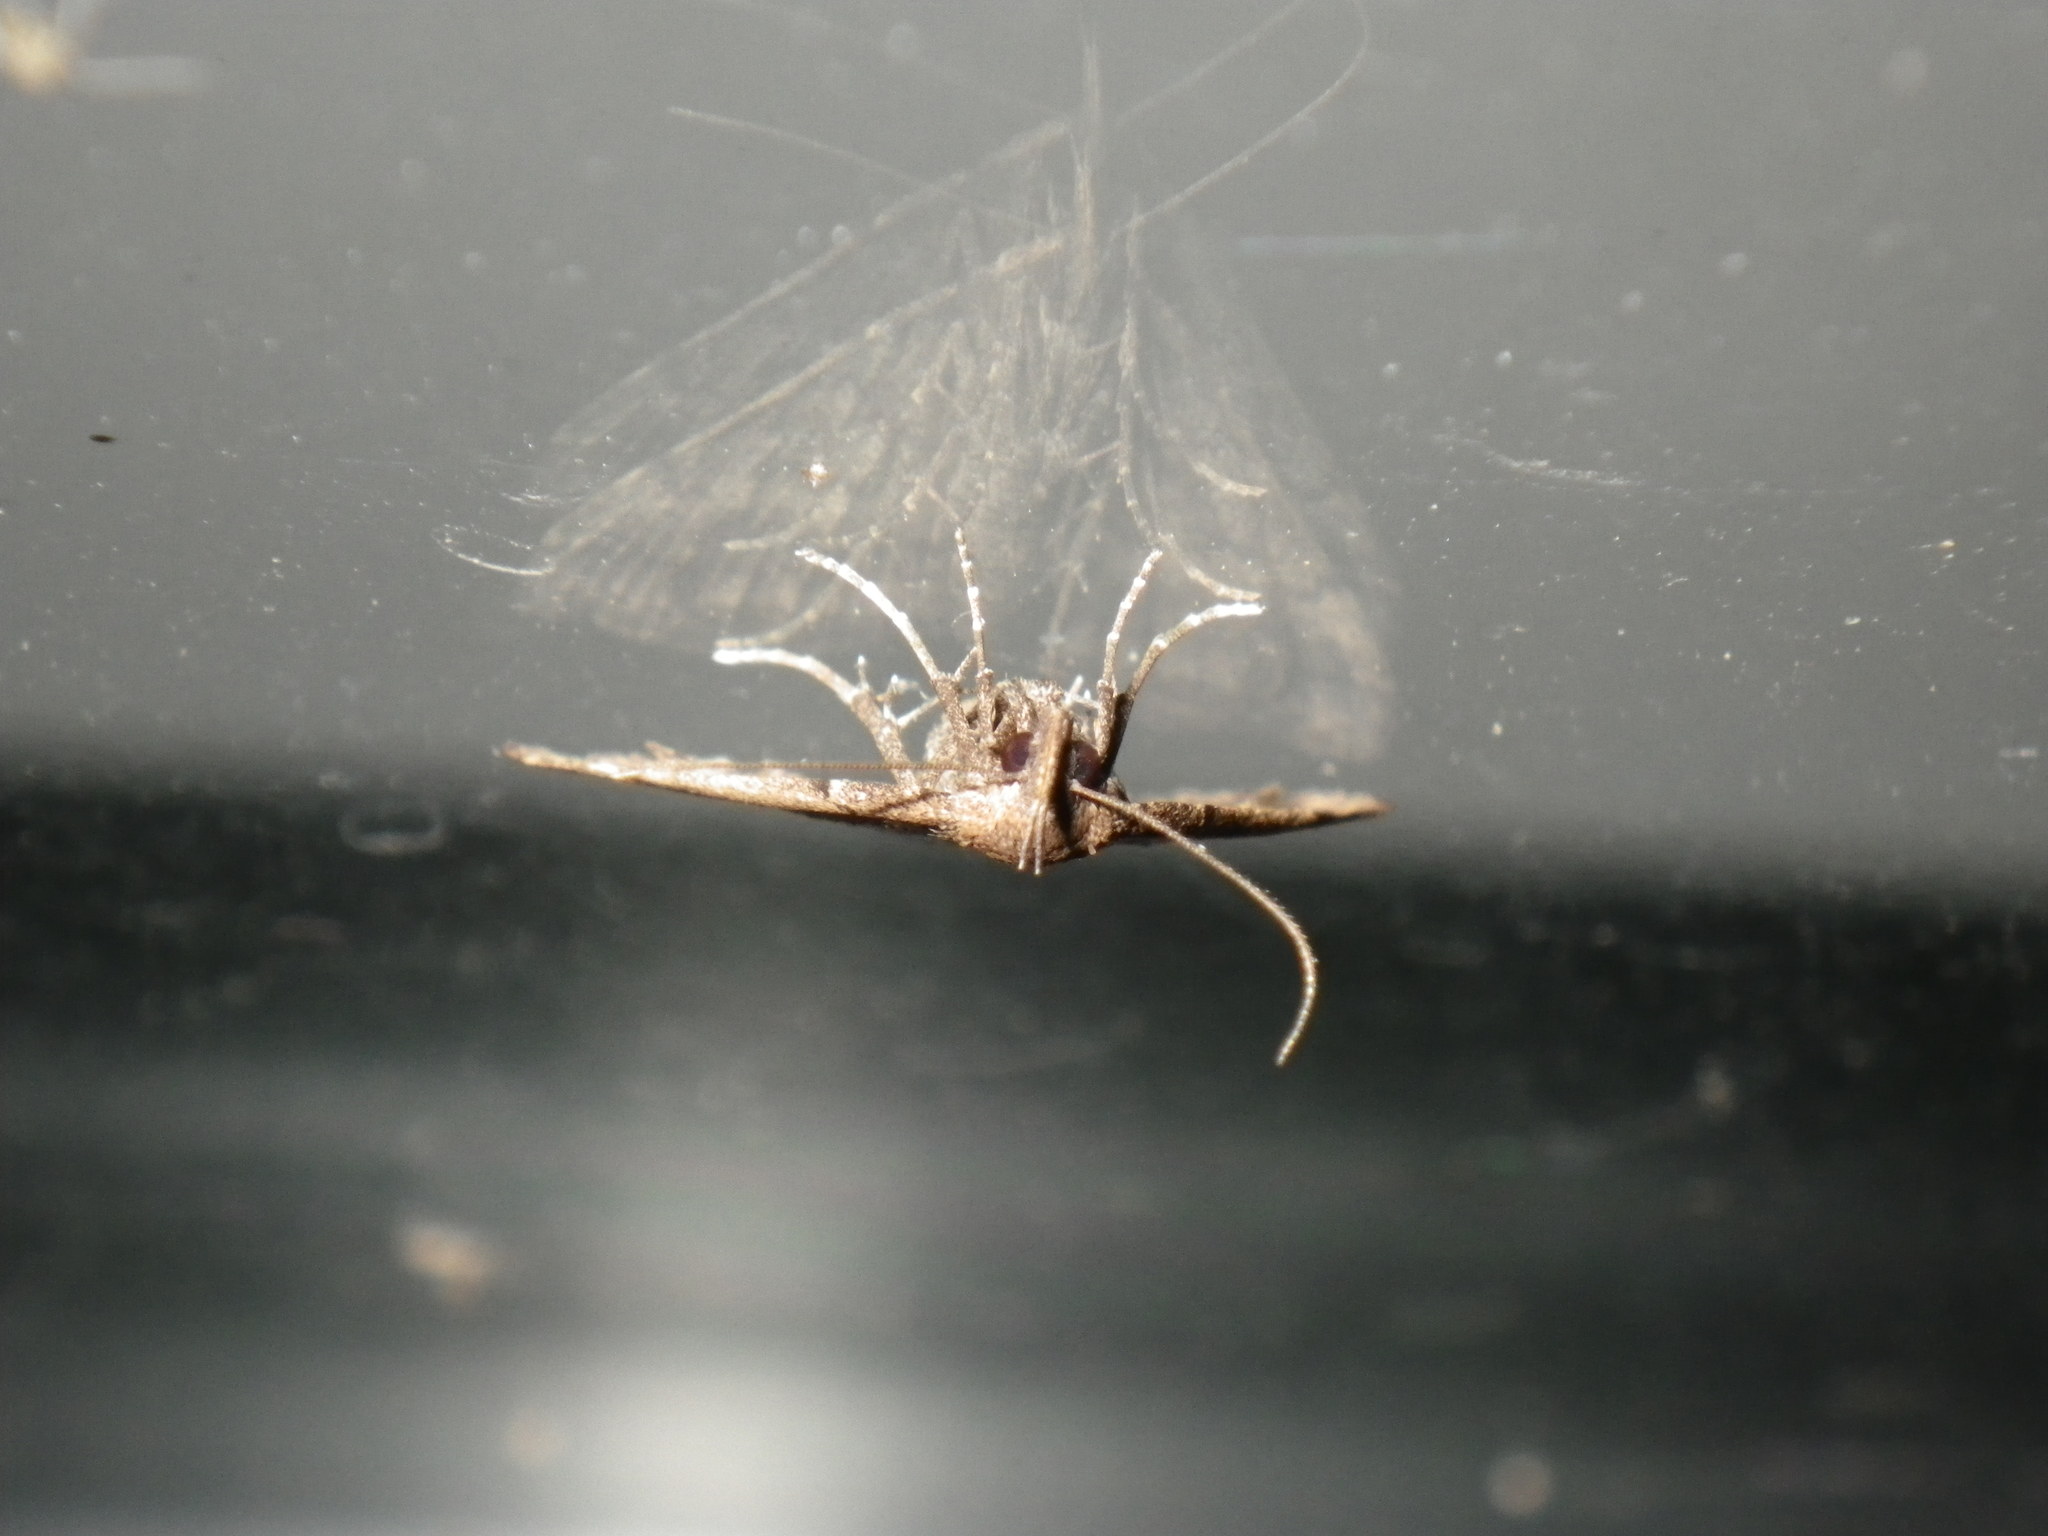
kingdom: Animalia
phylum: Arthropoda
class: Insecta
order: Lepidoptera
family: Erebidae
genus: Tetanolita
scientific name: Tetanolita palligera
